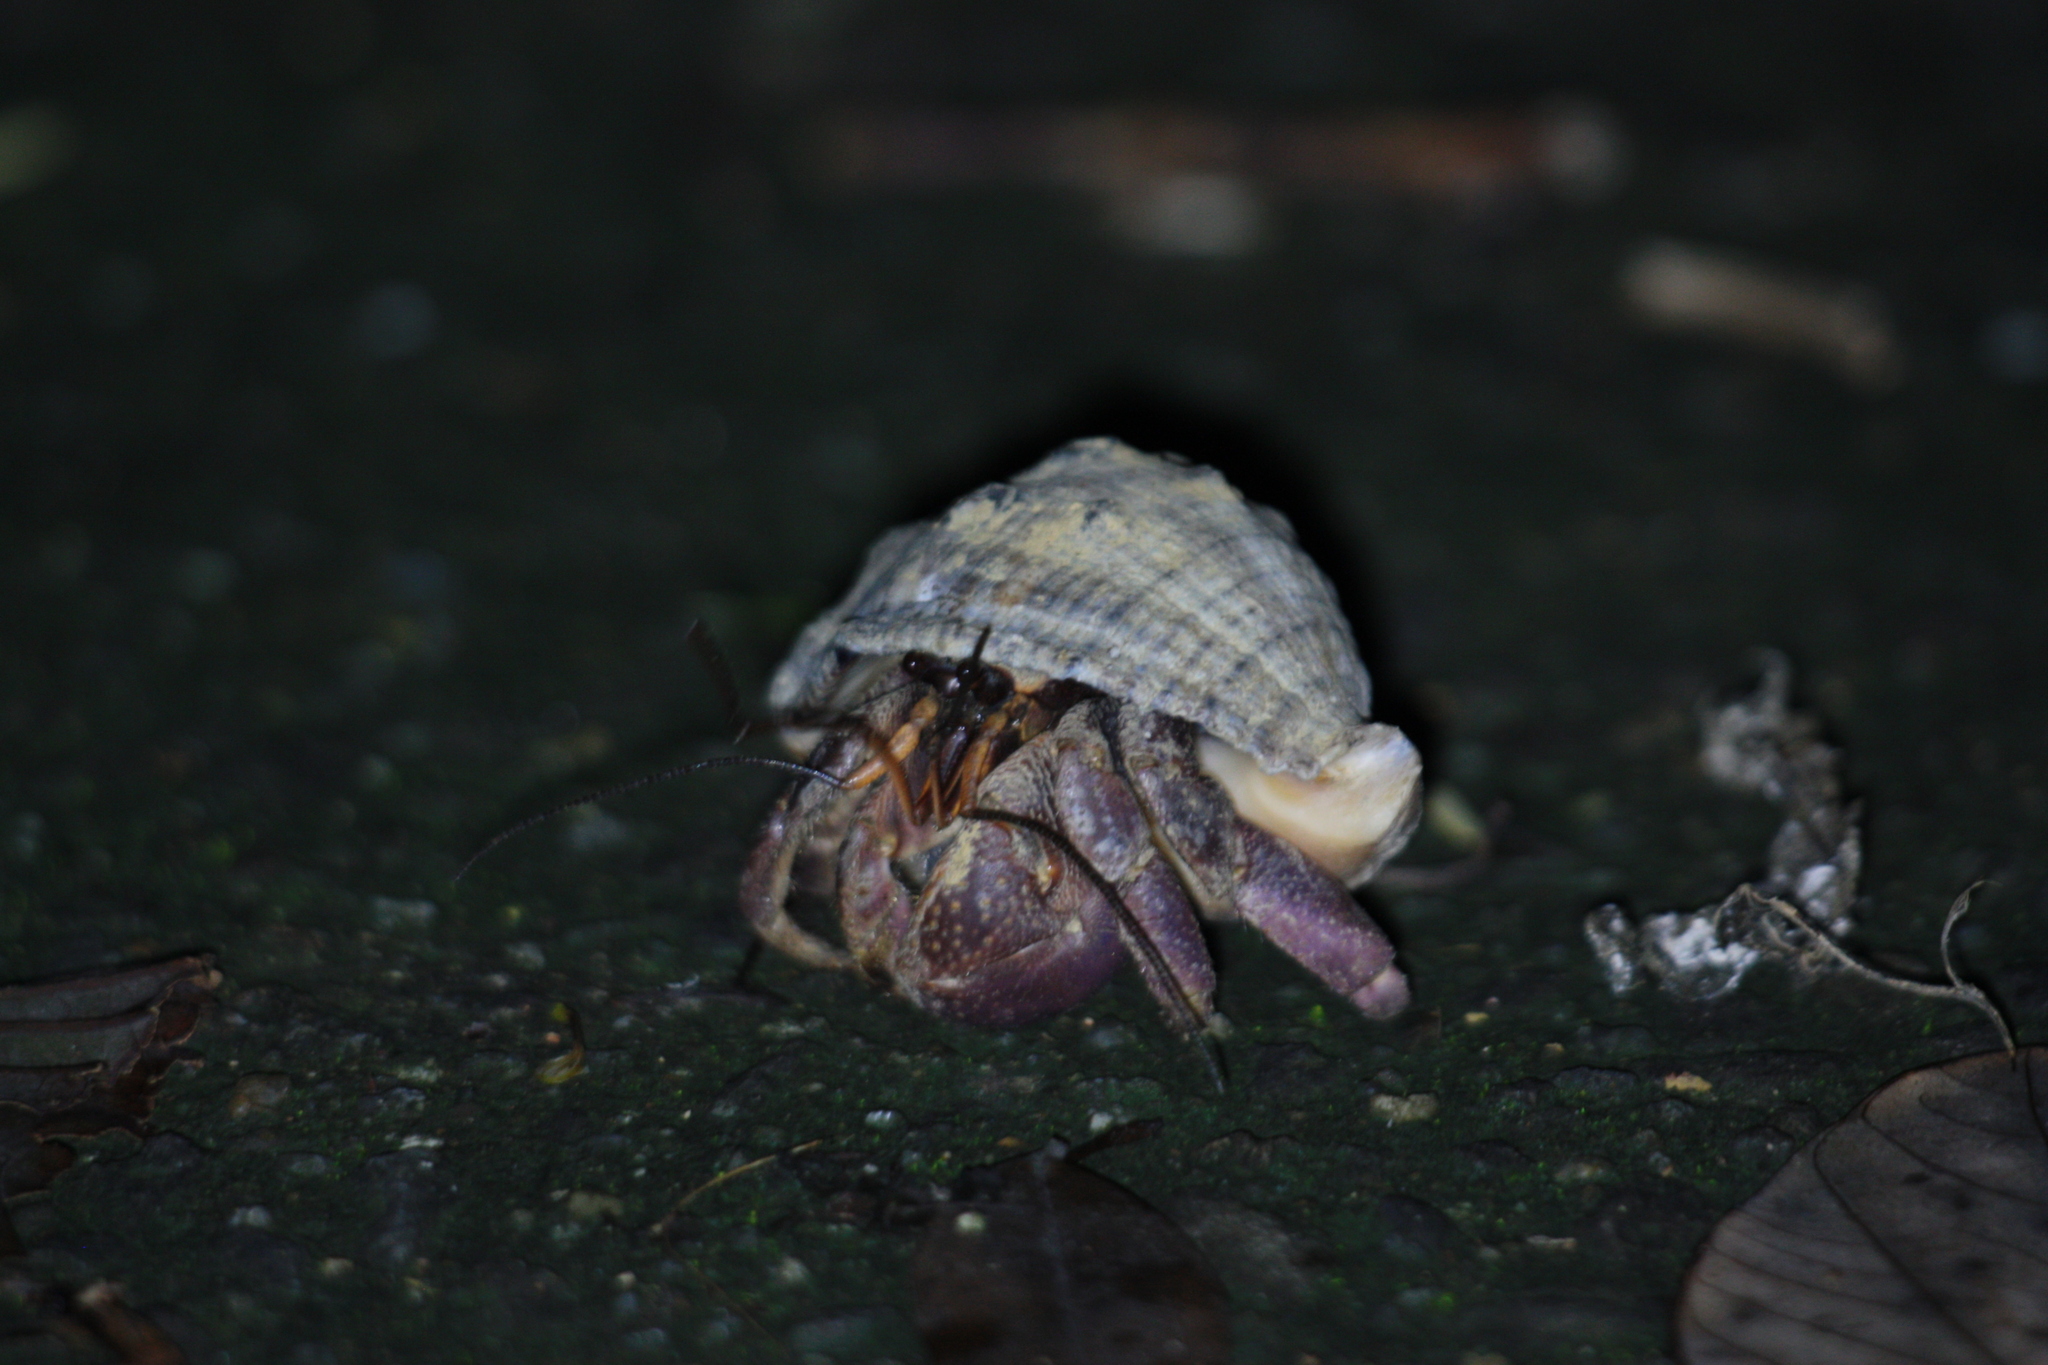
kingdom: Animalia
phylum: Arthropoda
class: Malacostraca
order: Decapoda
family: Coenobitidae
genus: Coenobita
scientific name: Coenobita brevimanus
